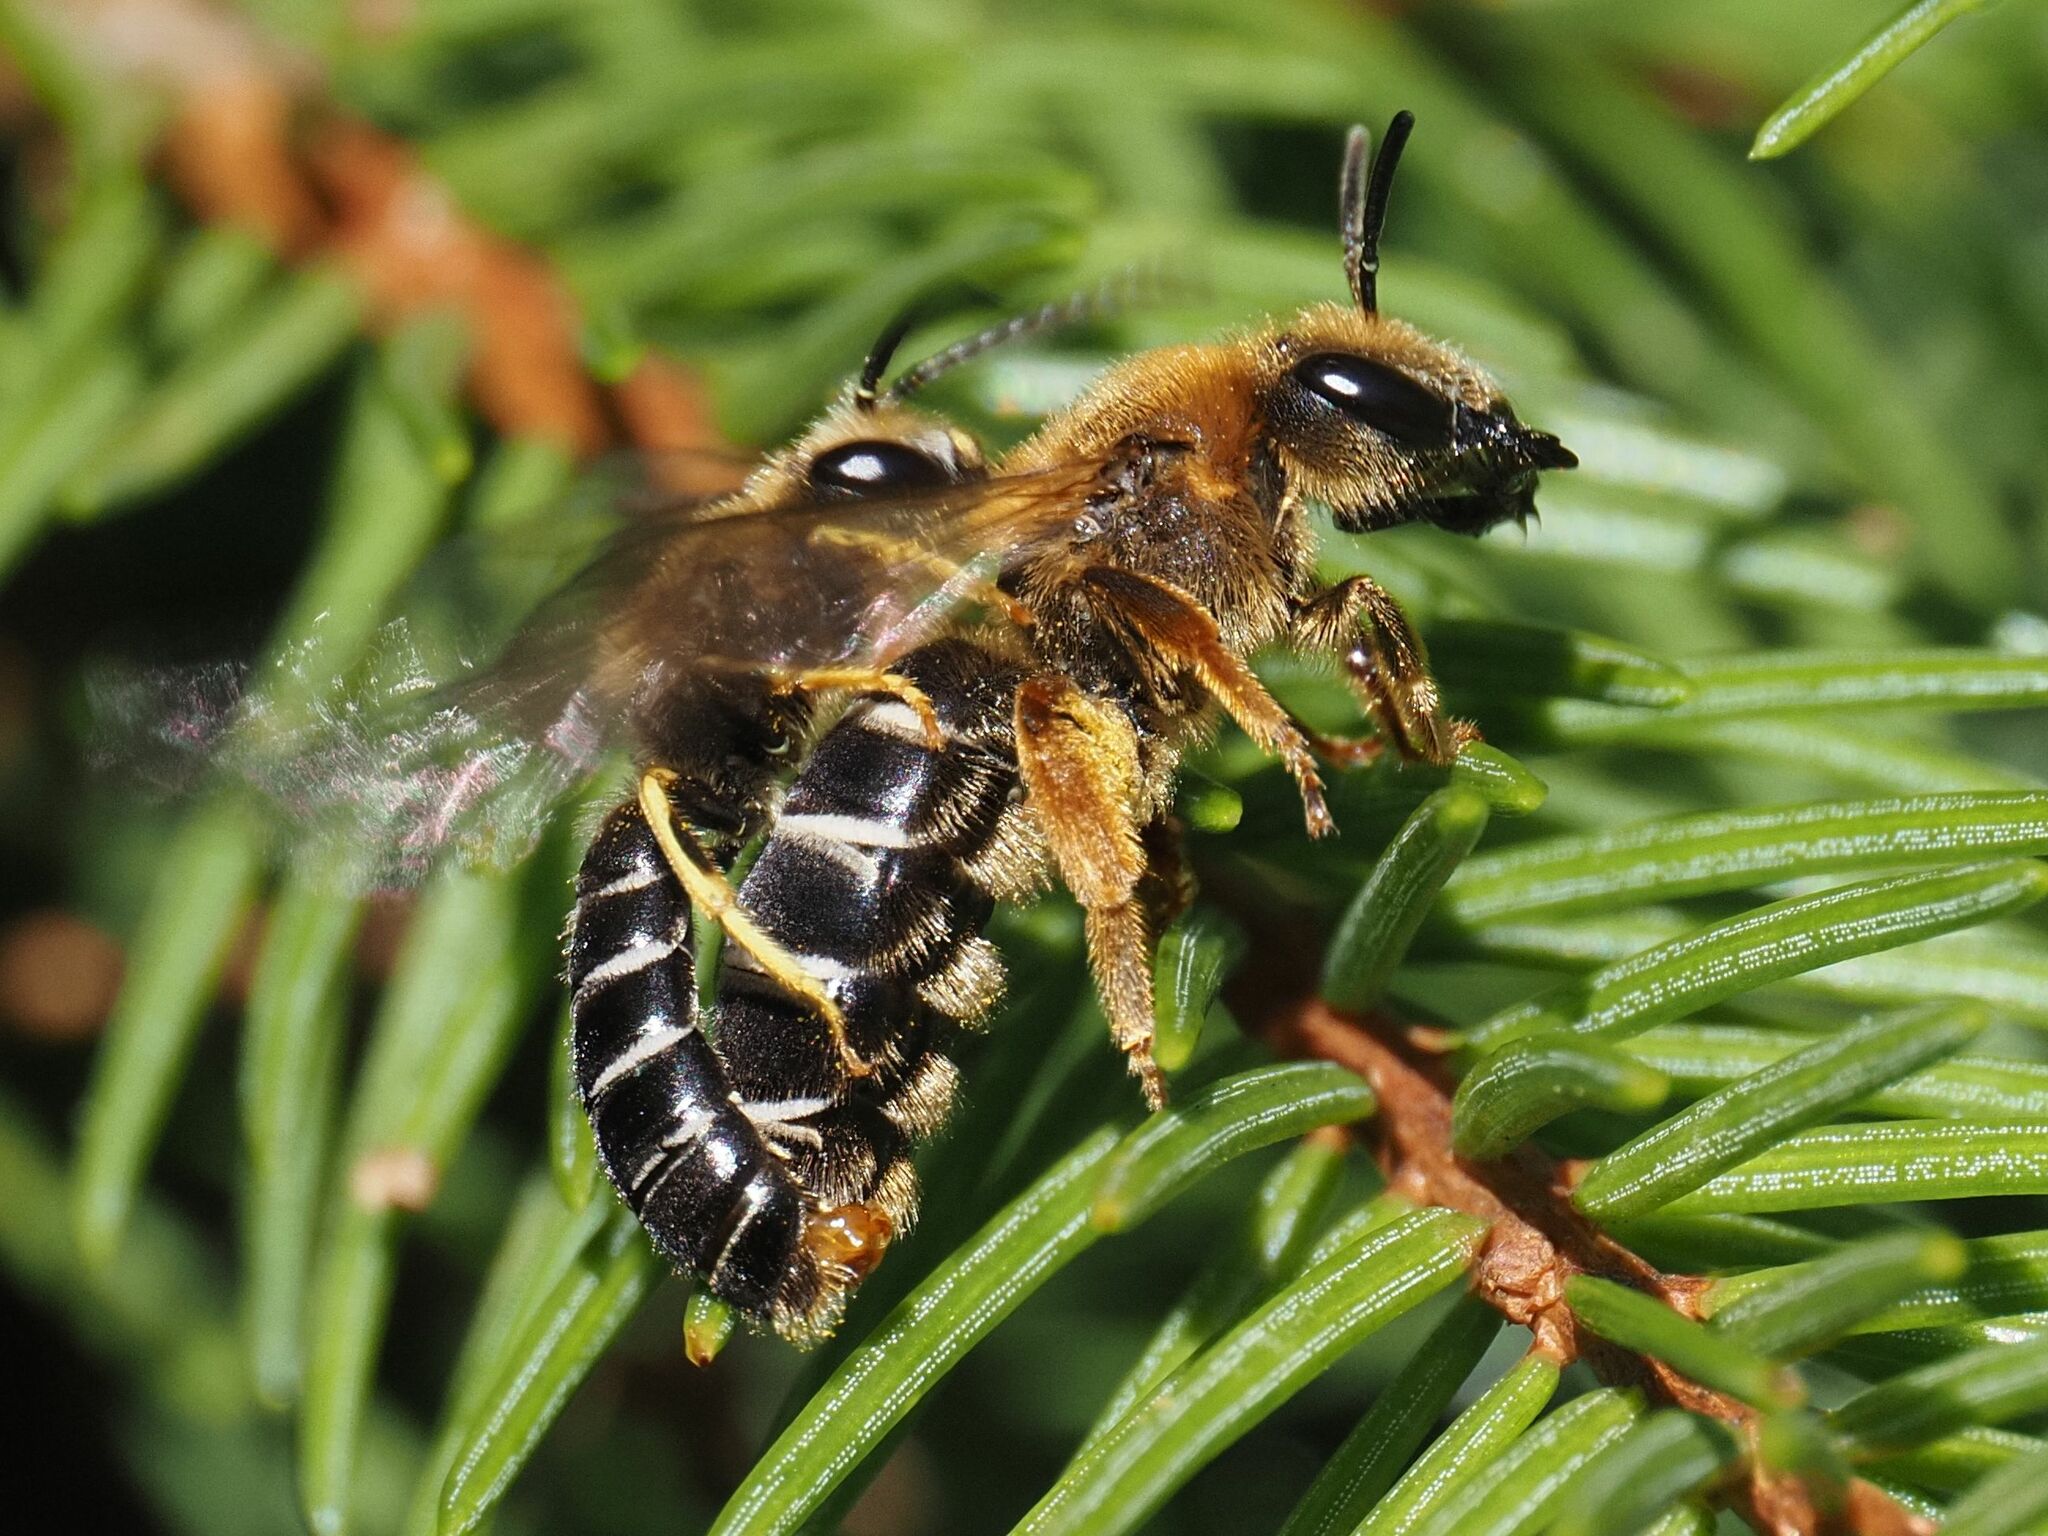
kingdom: Animalia
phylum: Arthropoda
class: Insecta
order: Hymenoptera
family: Halictidae
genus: Halictus
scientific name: Halictus rubicundus
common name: Orange-legged furrow bee
